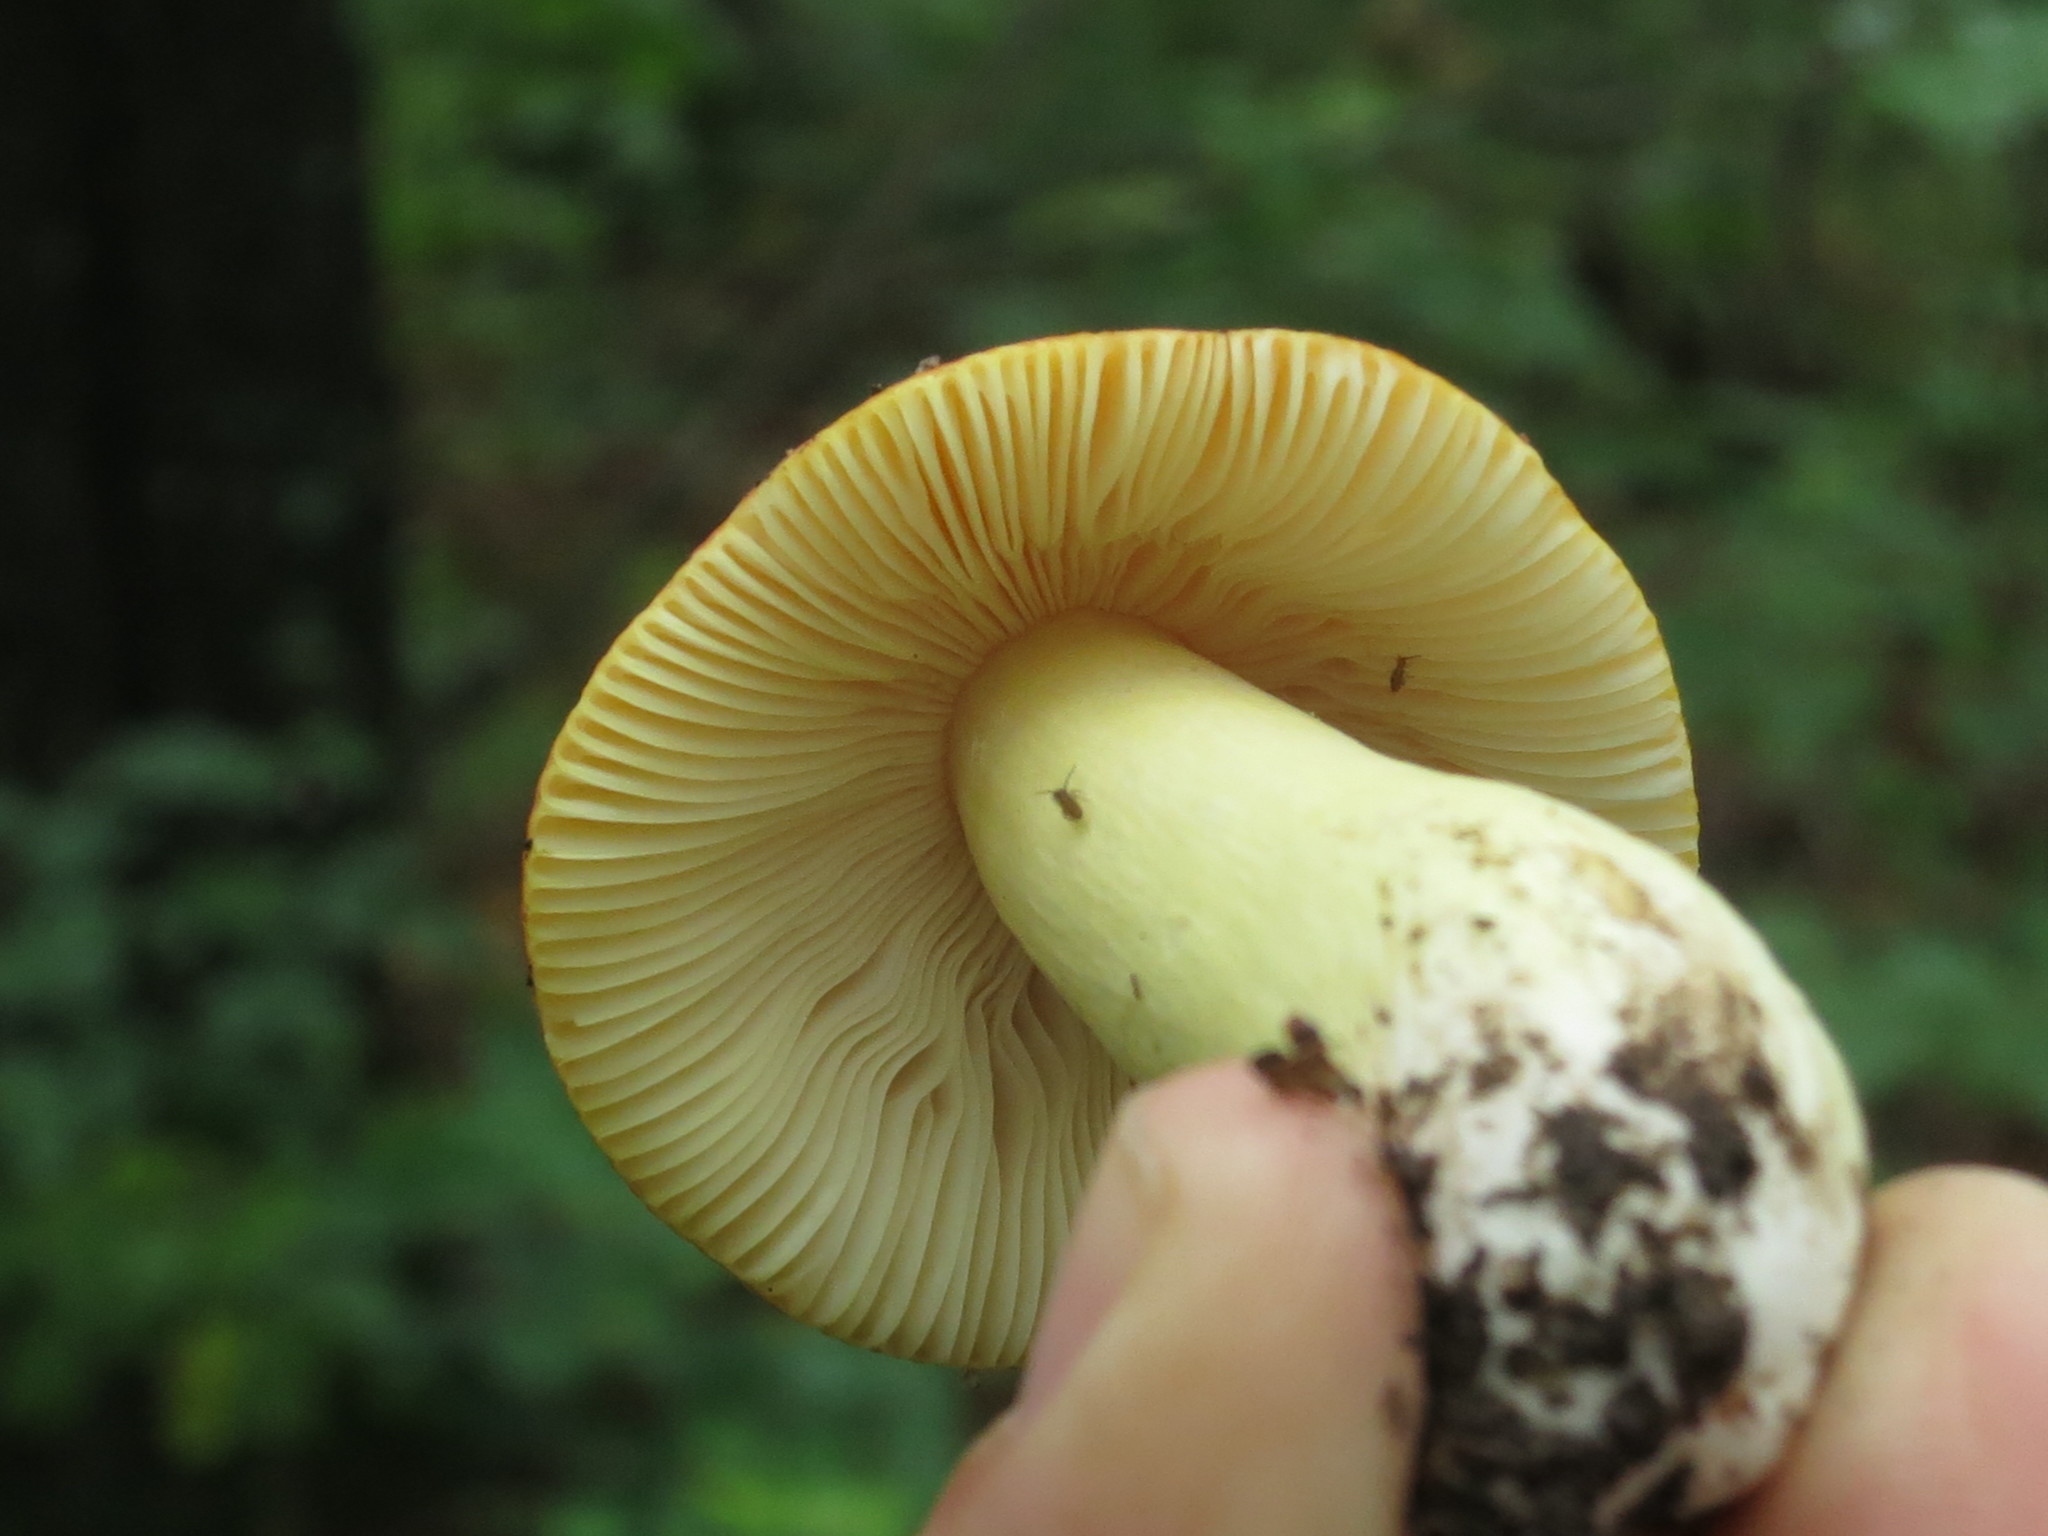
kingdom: Fungi
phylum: Basidiomycota
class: Agaricomycetes
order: Russulales
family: Russulaceae
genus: Russula
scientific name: Russula aurea
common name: Gilded brittlegill
